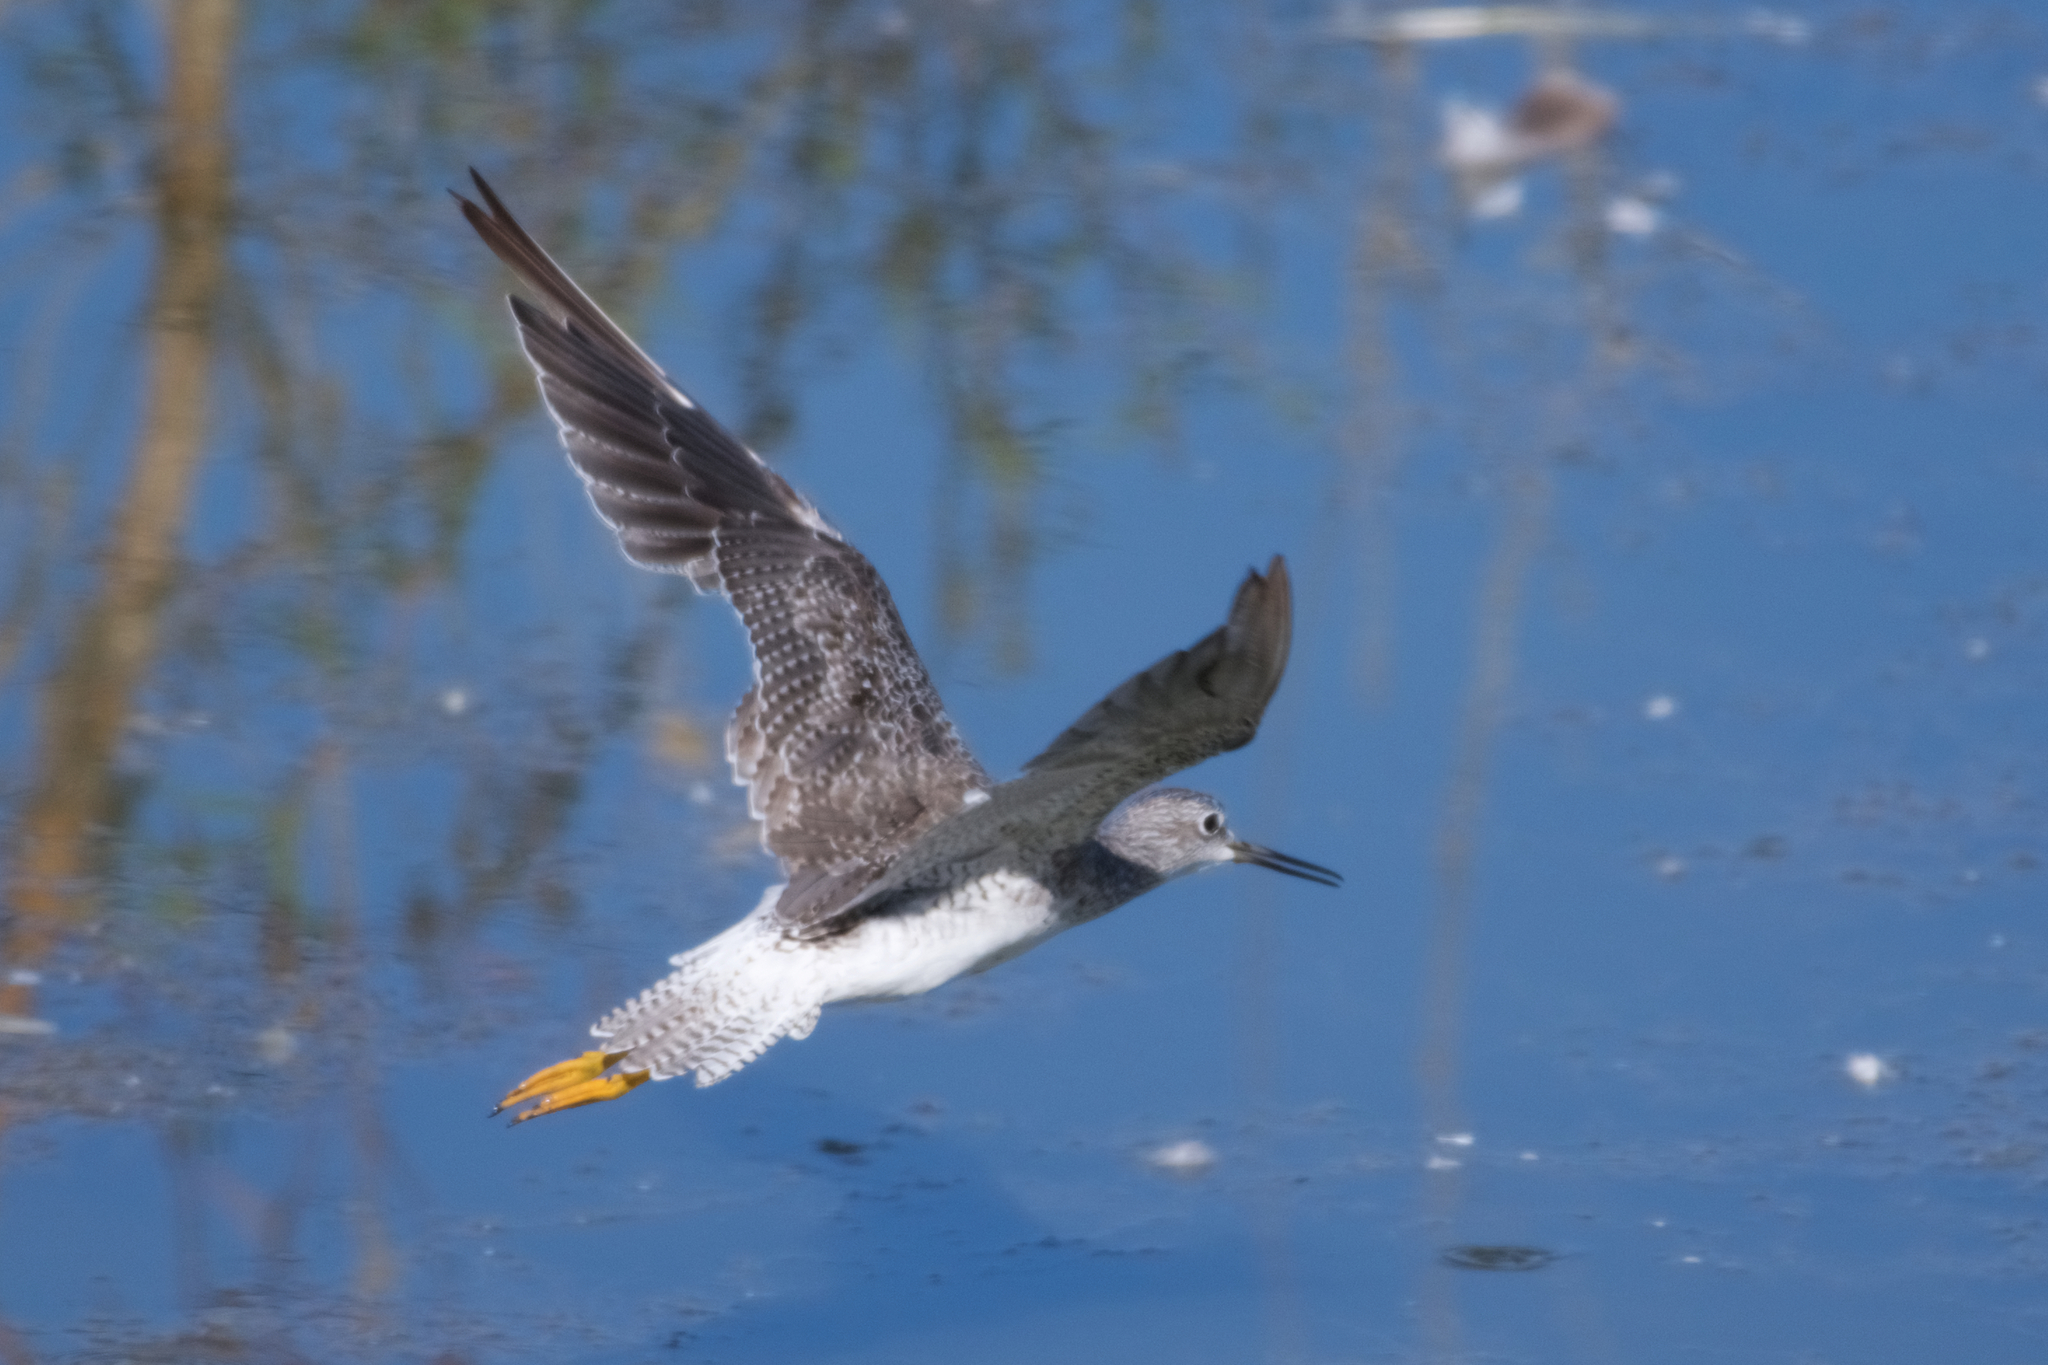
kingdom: Animalia
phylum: Chordata
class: Aves
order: Charadriiformes
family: Scolopacidae
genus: Tringa
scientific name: Tringa flavipes
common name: Lesser yellowlegs
